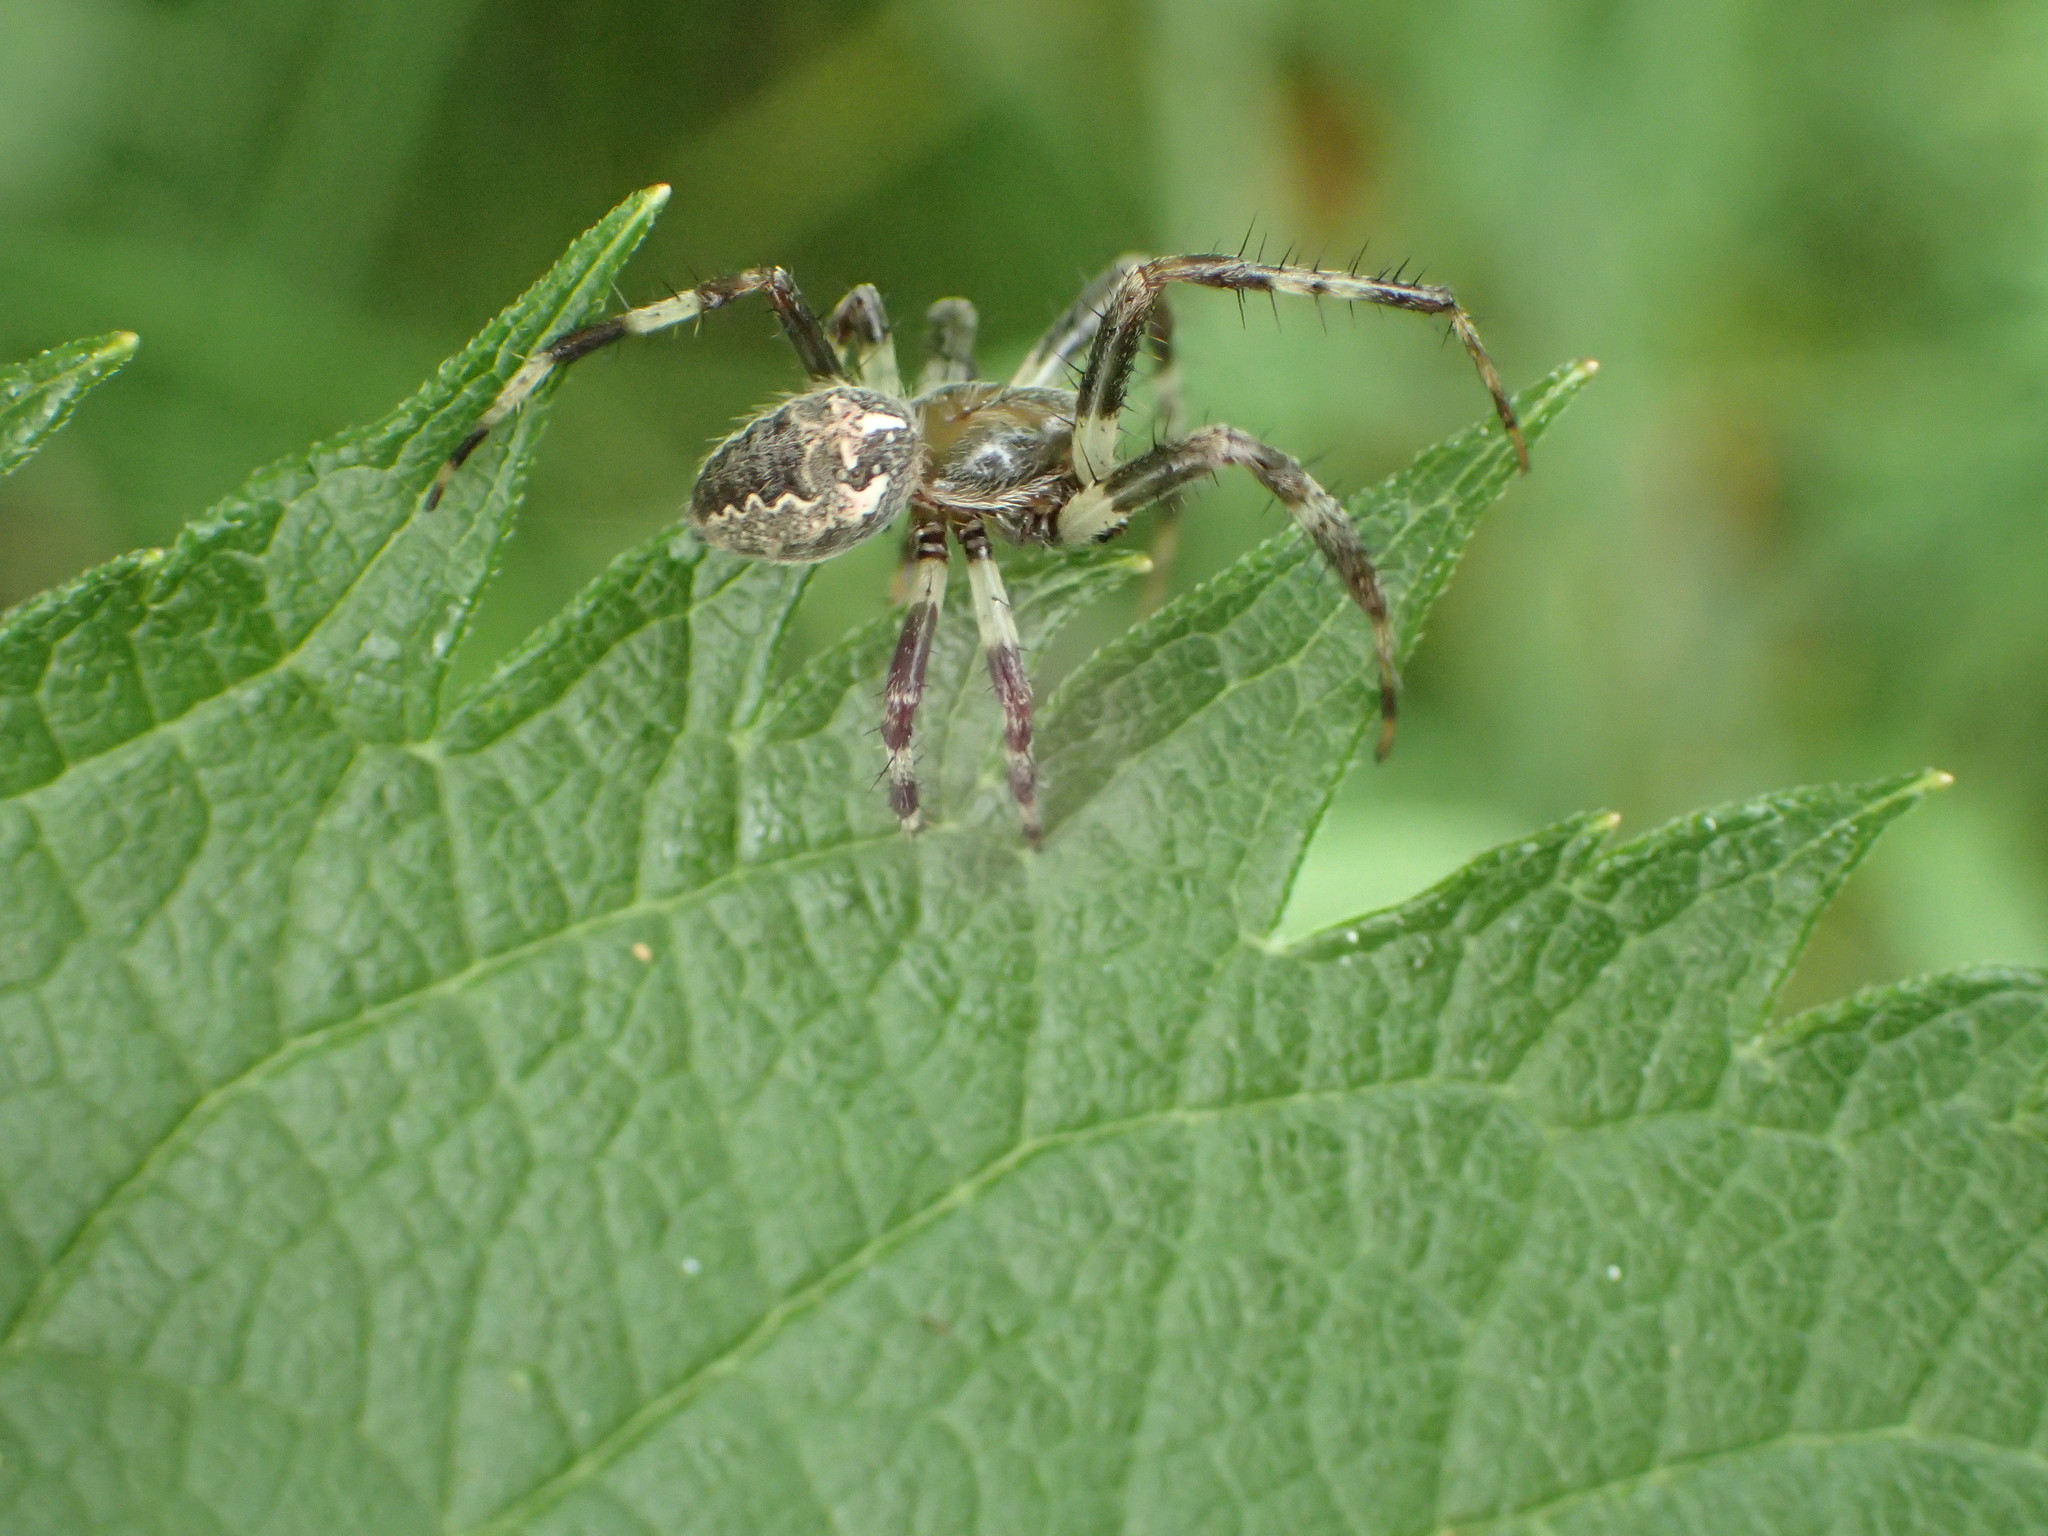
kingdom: Animalia
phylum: Arthropoda
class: Arachnida
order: Araneae
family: Araneidae
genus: Araneus
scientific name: Araneus marmoreus
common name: Marbled orbweaver
